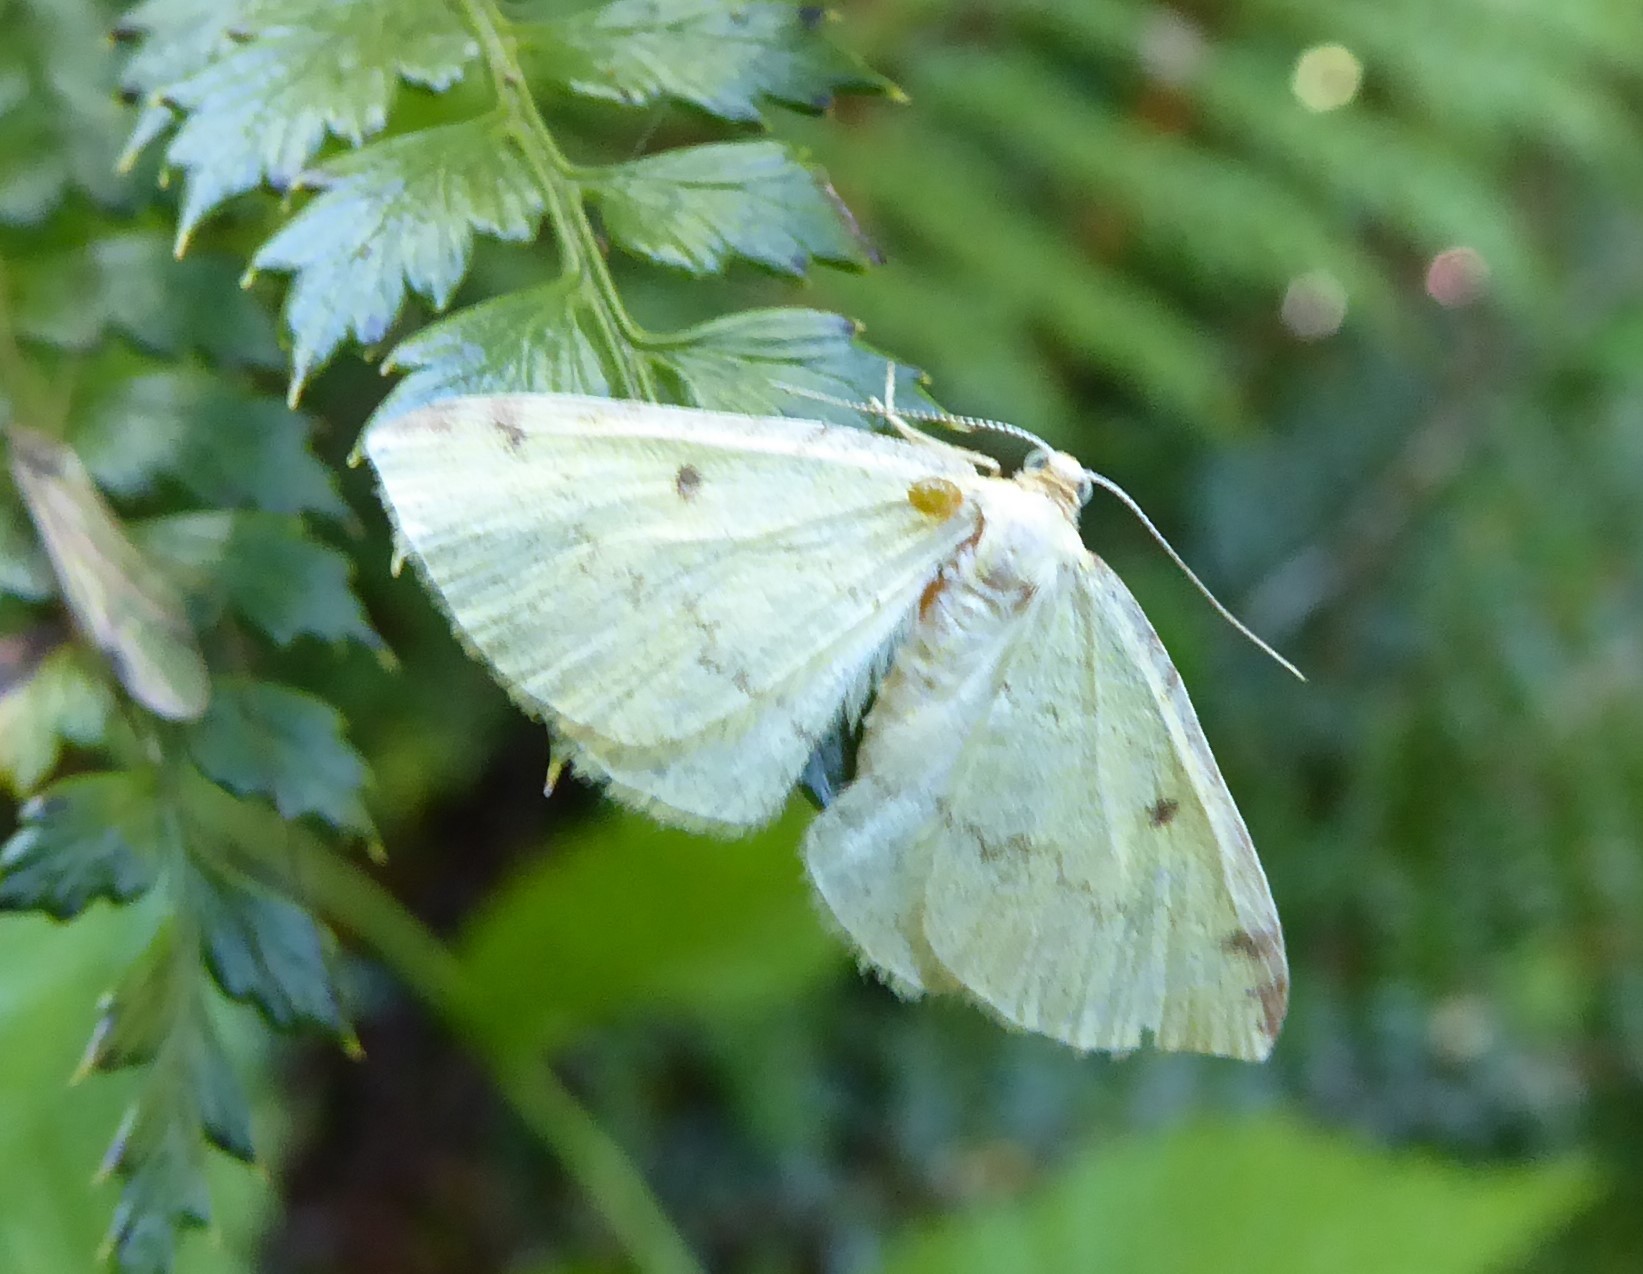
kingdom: Animalia
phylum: Arthropoda
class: Insecta
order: Lepidoptera
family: Geometridae
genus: Epiphryne
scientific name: Epiphryne undosata
